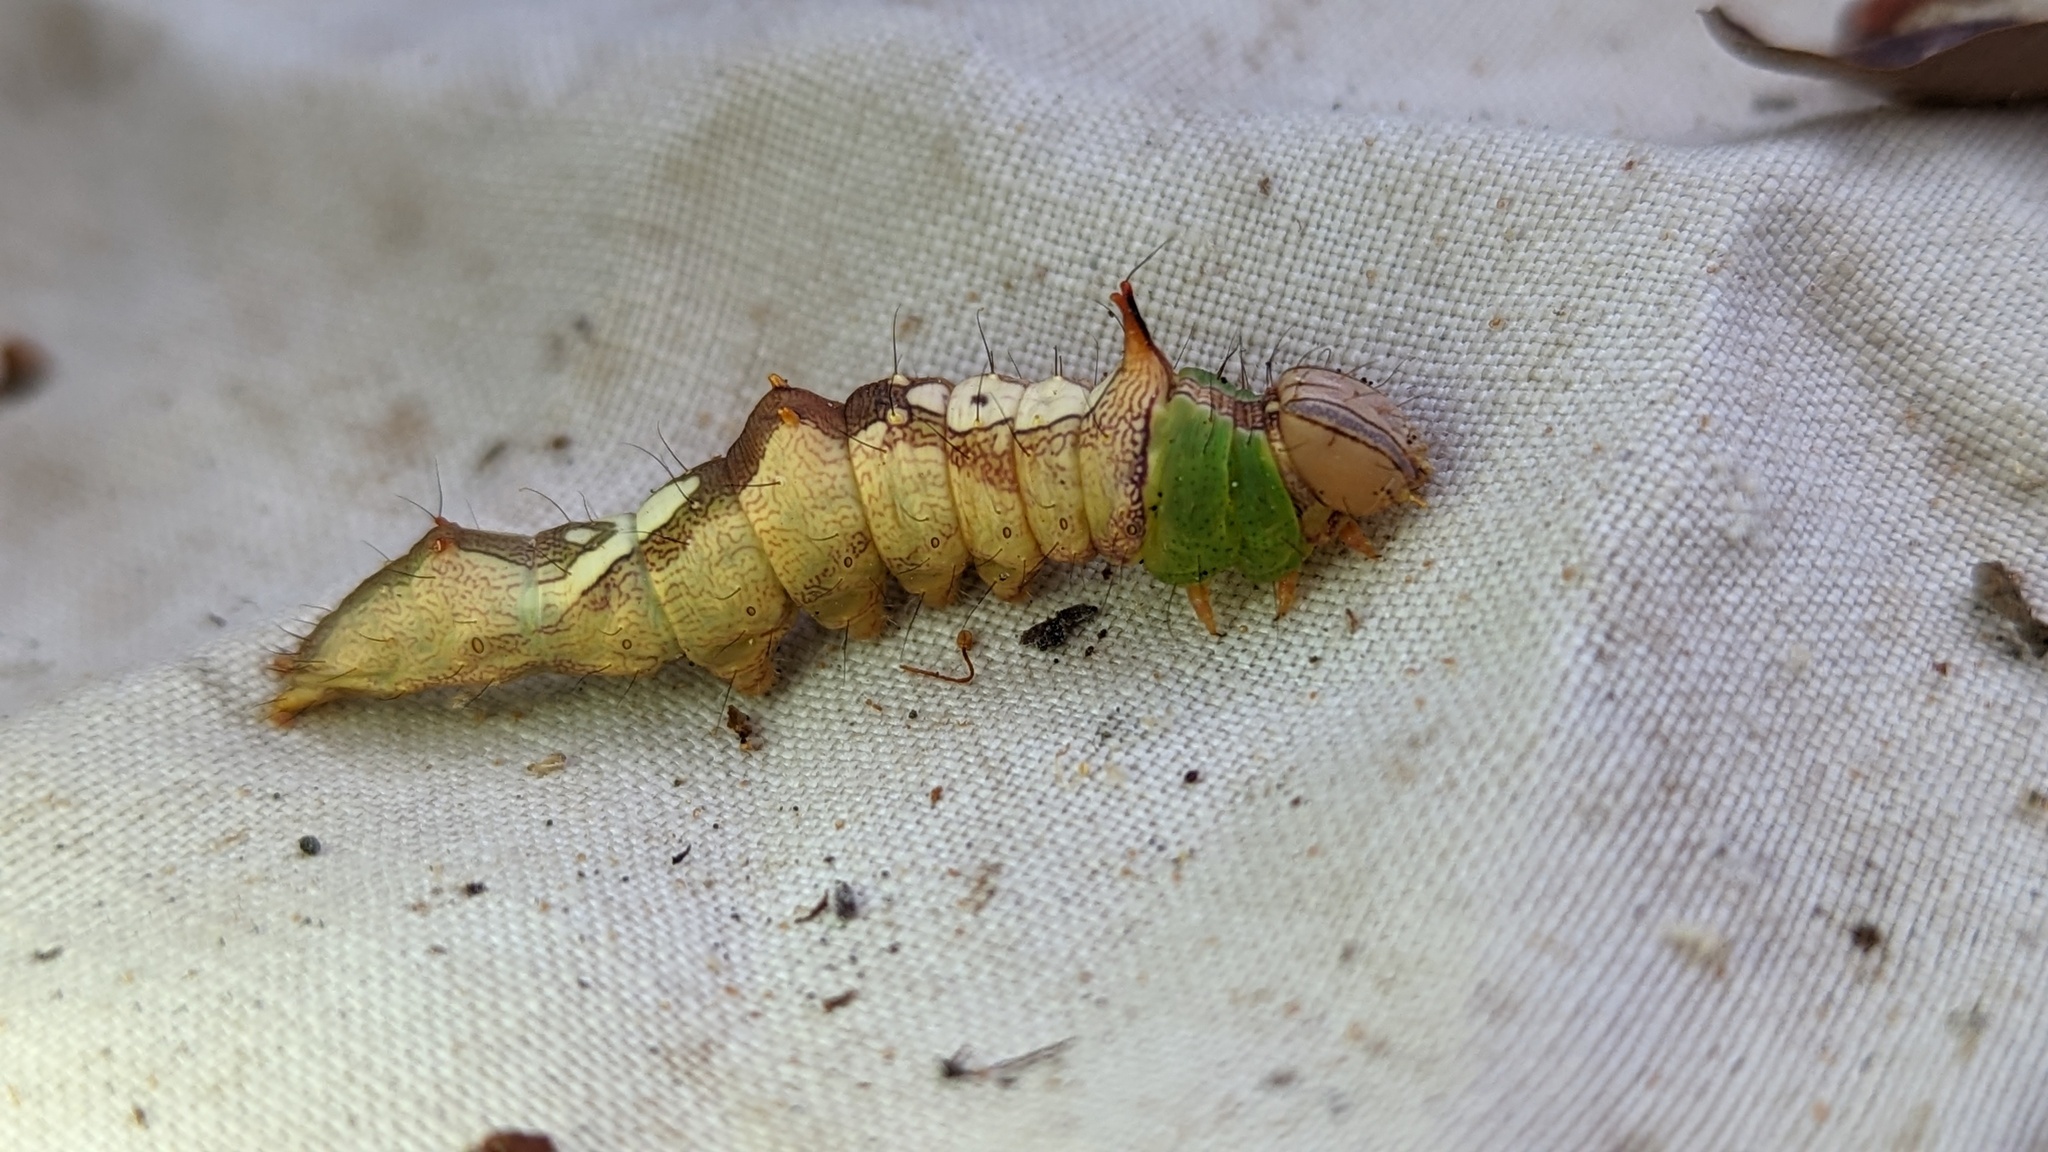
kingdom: Animalia
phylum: Arthropoda
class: Insecta
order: Lepidoptera
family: Notodontidae
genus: Schizura
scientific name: Schizura ipomaeae
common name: Morning-glory prominent
